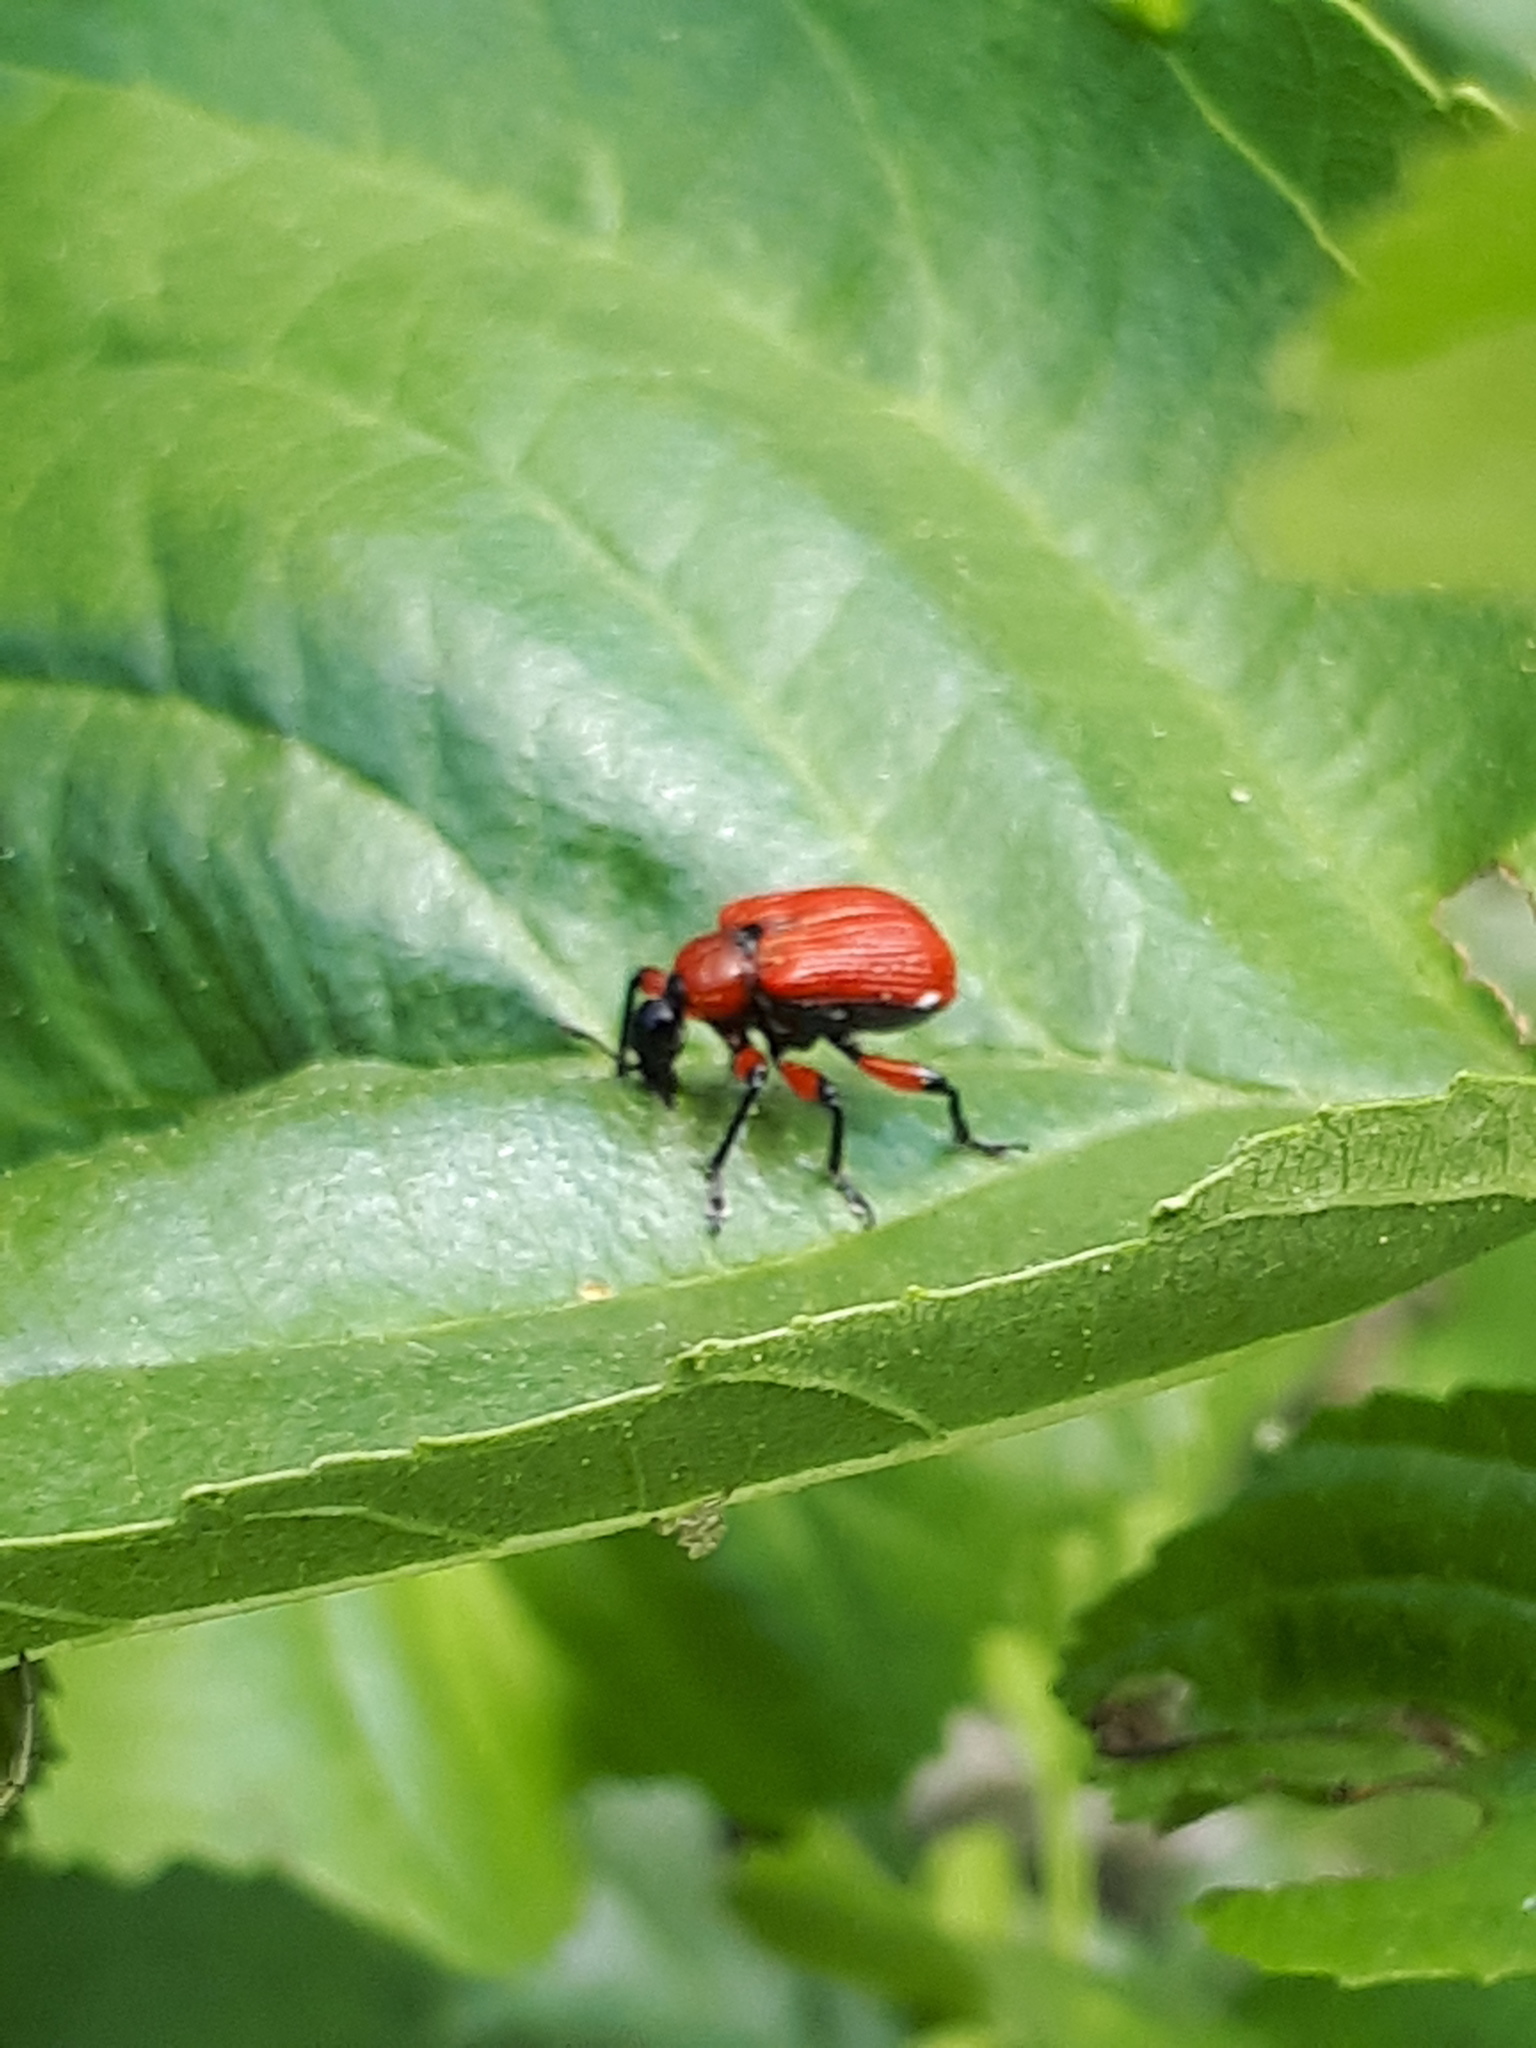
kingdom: Animalia
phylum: Arthropoda
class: Insecta
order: Coleoptera
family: Attelabidae
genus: Apoderus
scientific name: Apoderus coryli
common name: Hazel leaf roller
